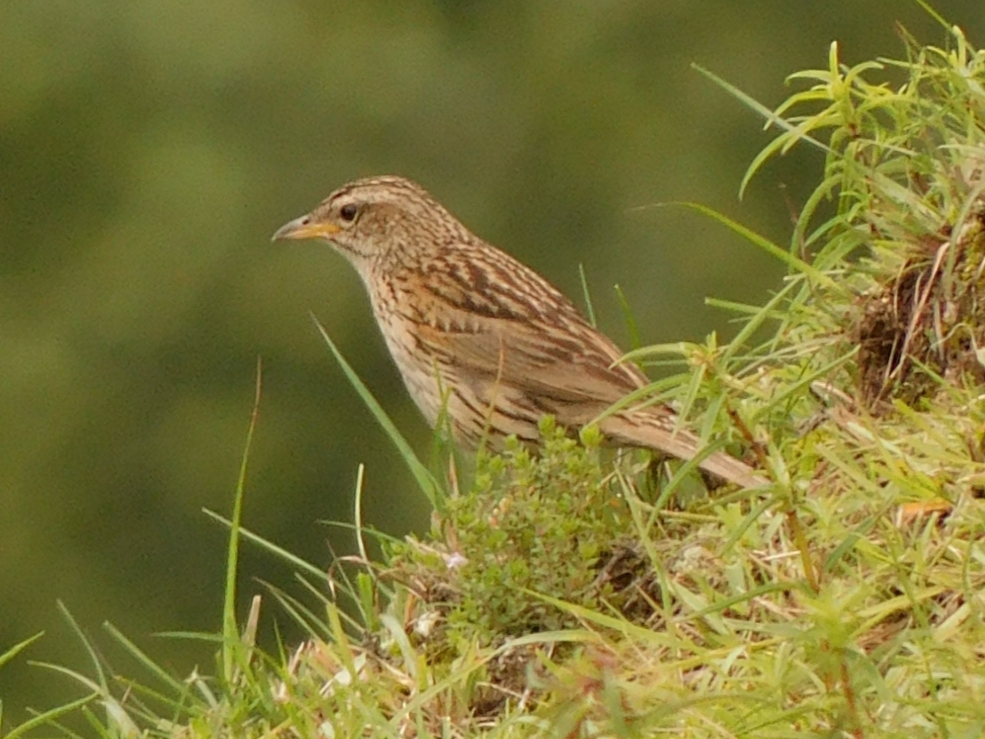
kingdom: Animalia
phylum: Chordata
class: Aves
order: Passeriformes
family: Motacillidae
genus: Anthus
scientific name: Anthus sylvanus
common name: Upland pipit
